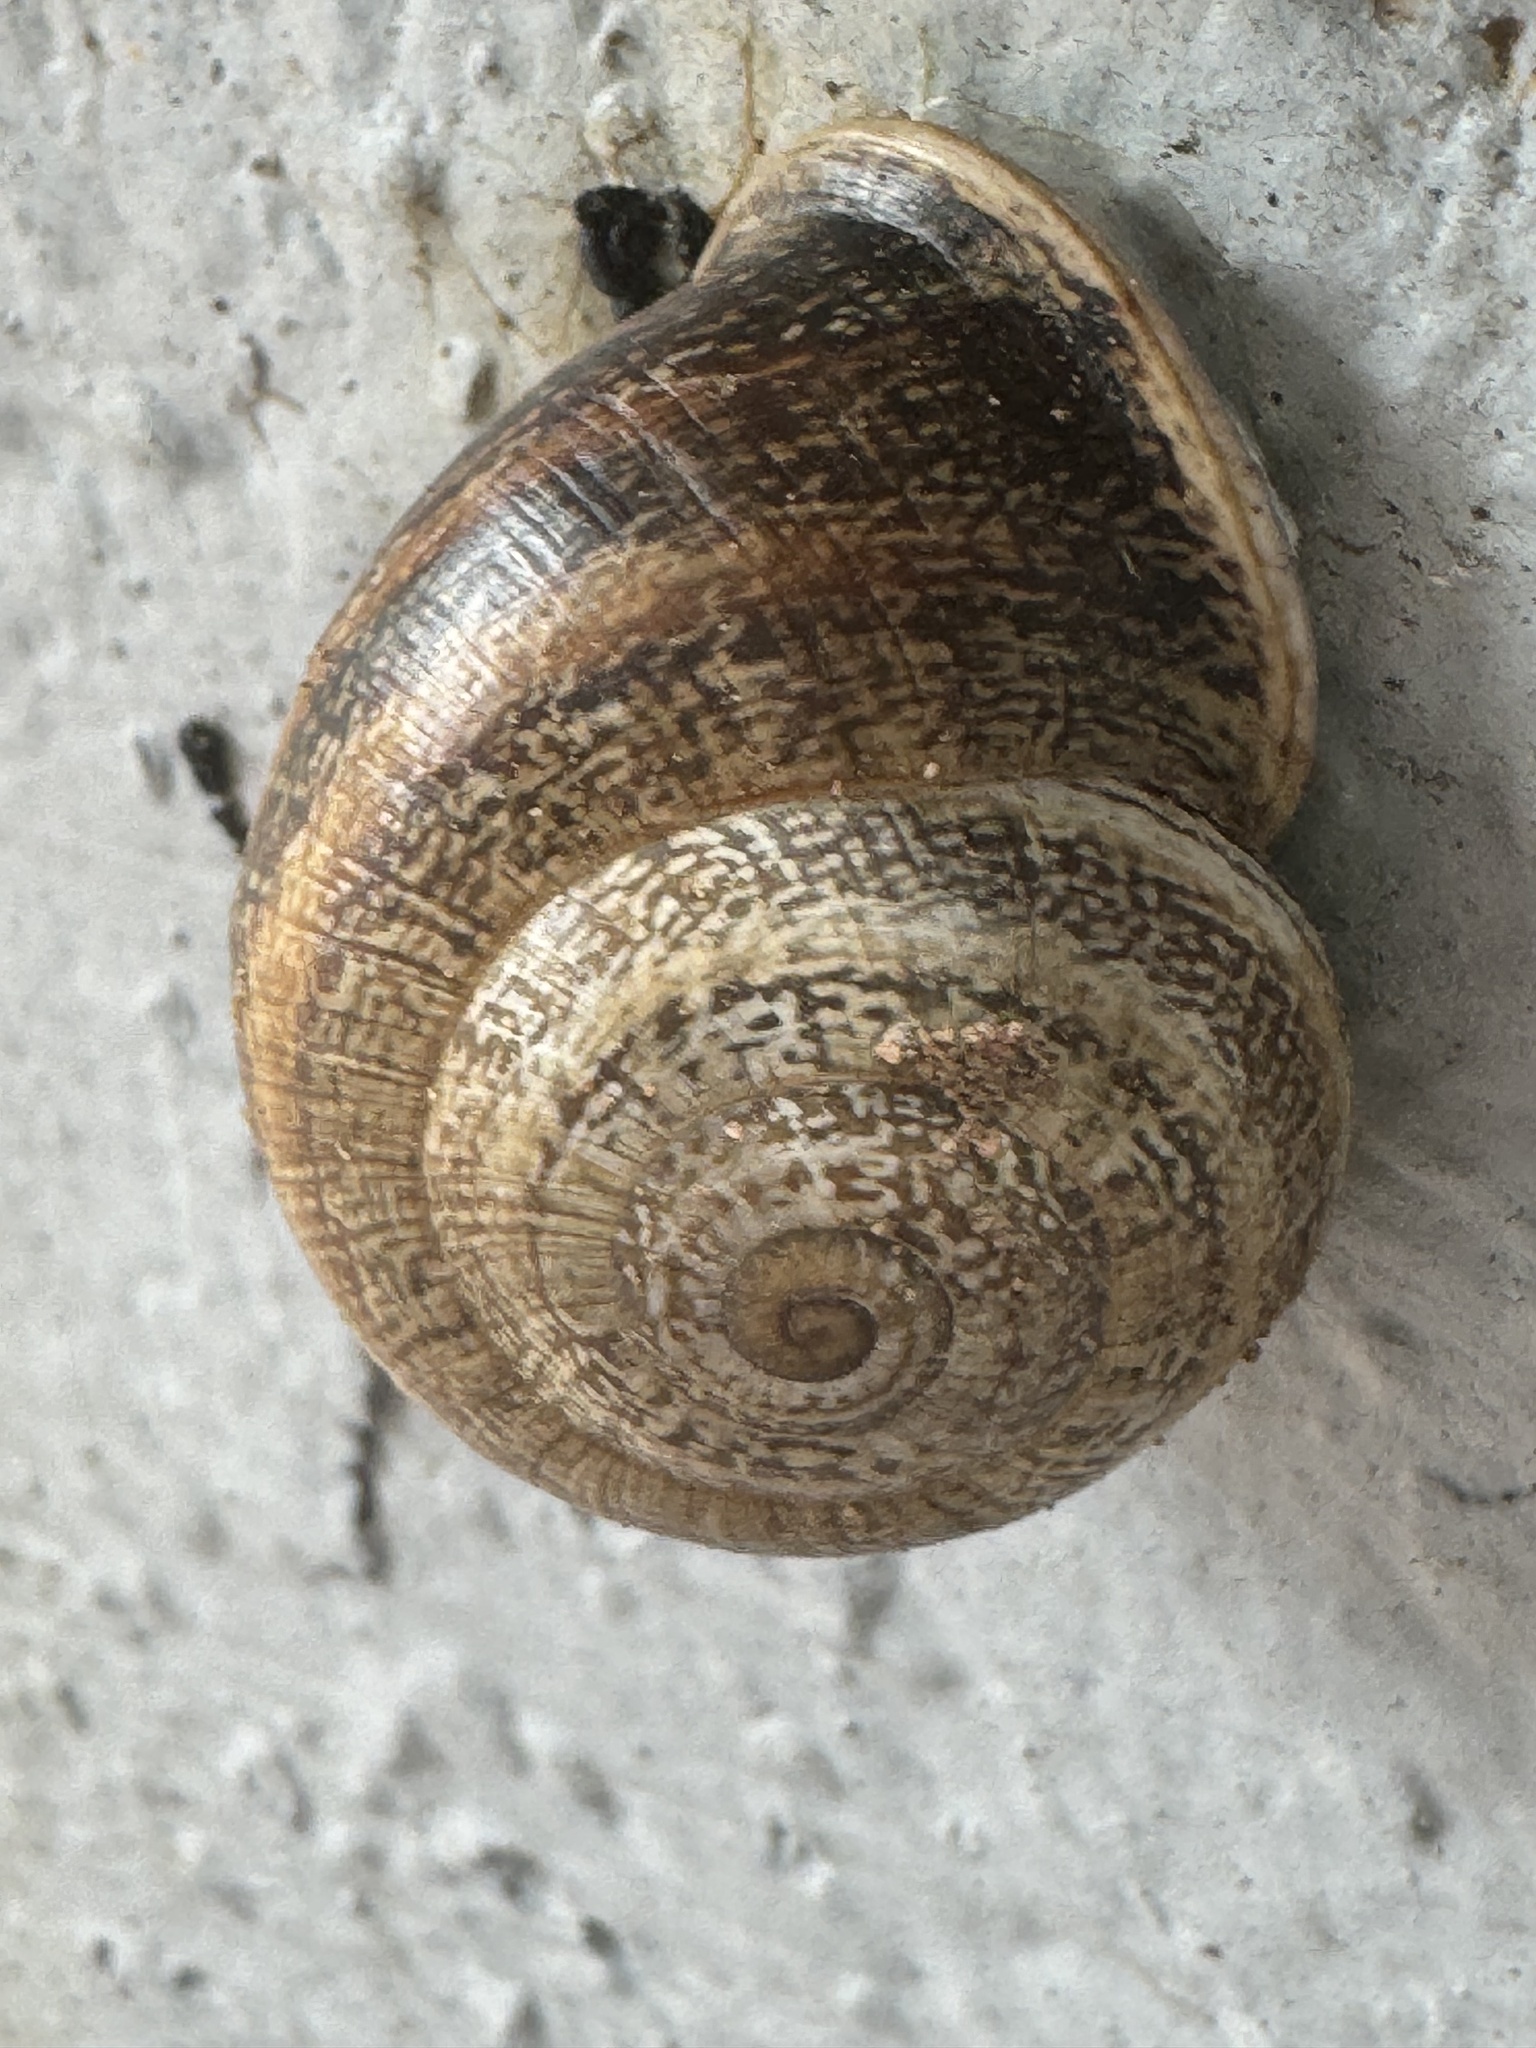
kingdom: Animalia
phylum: Mollusca
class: Gastropoda
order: Stylommatophora
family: Helicidae
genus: Otala
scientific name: Otala lactea
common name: Milk snail
